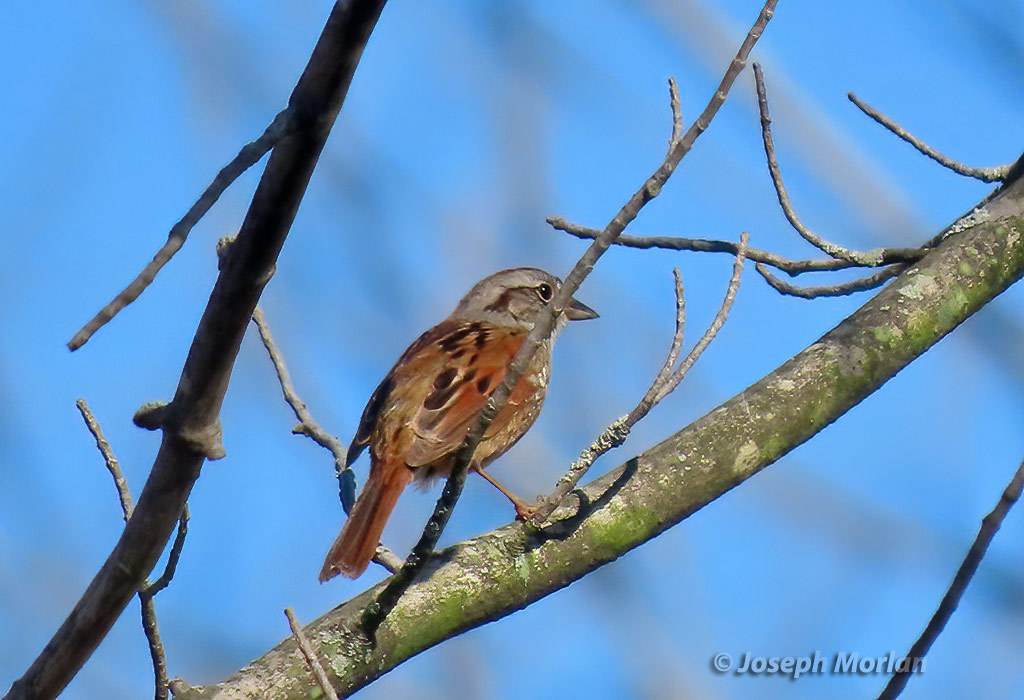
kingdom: Animalia
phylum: Chordata
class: Aves
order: Passeriformes
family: Passerellidae
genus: Melospiza
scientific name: Melospiza georgiana
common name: Swamp sparrow
